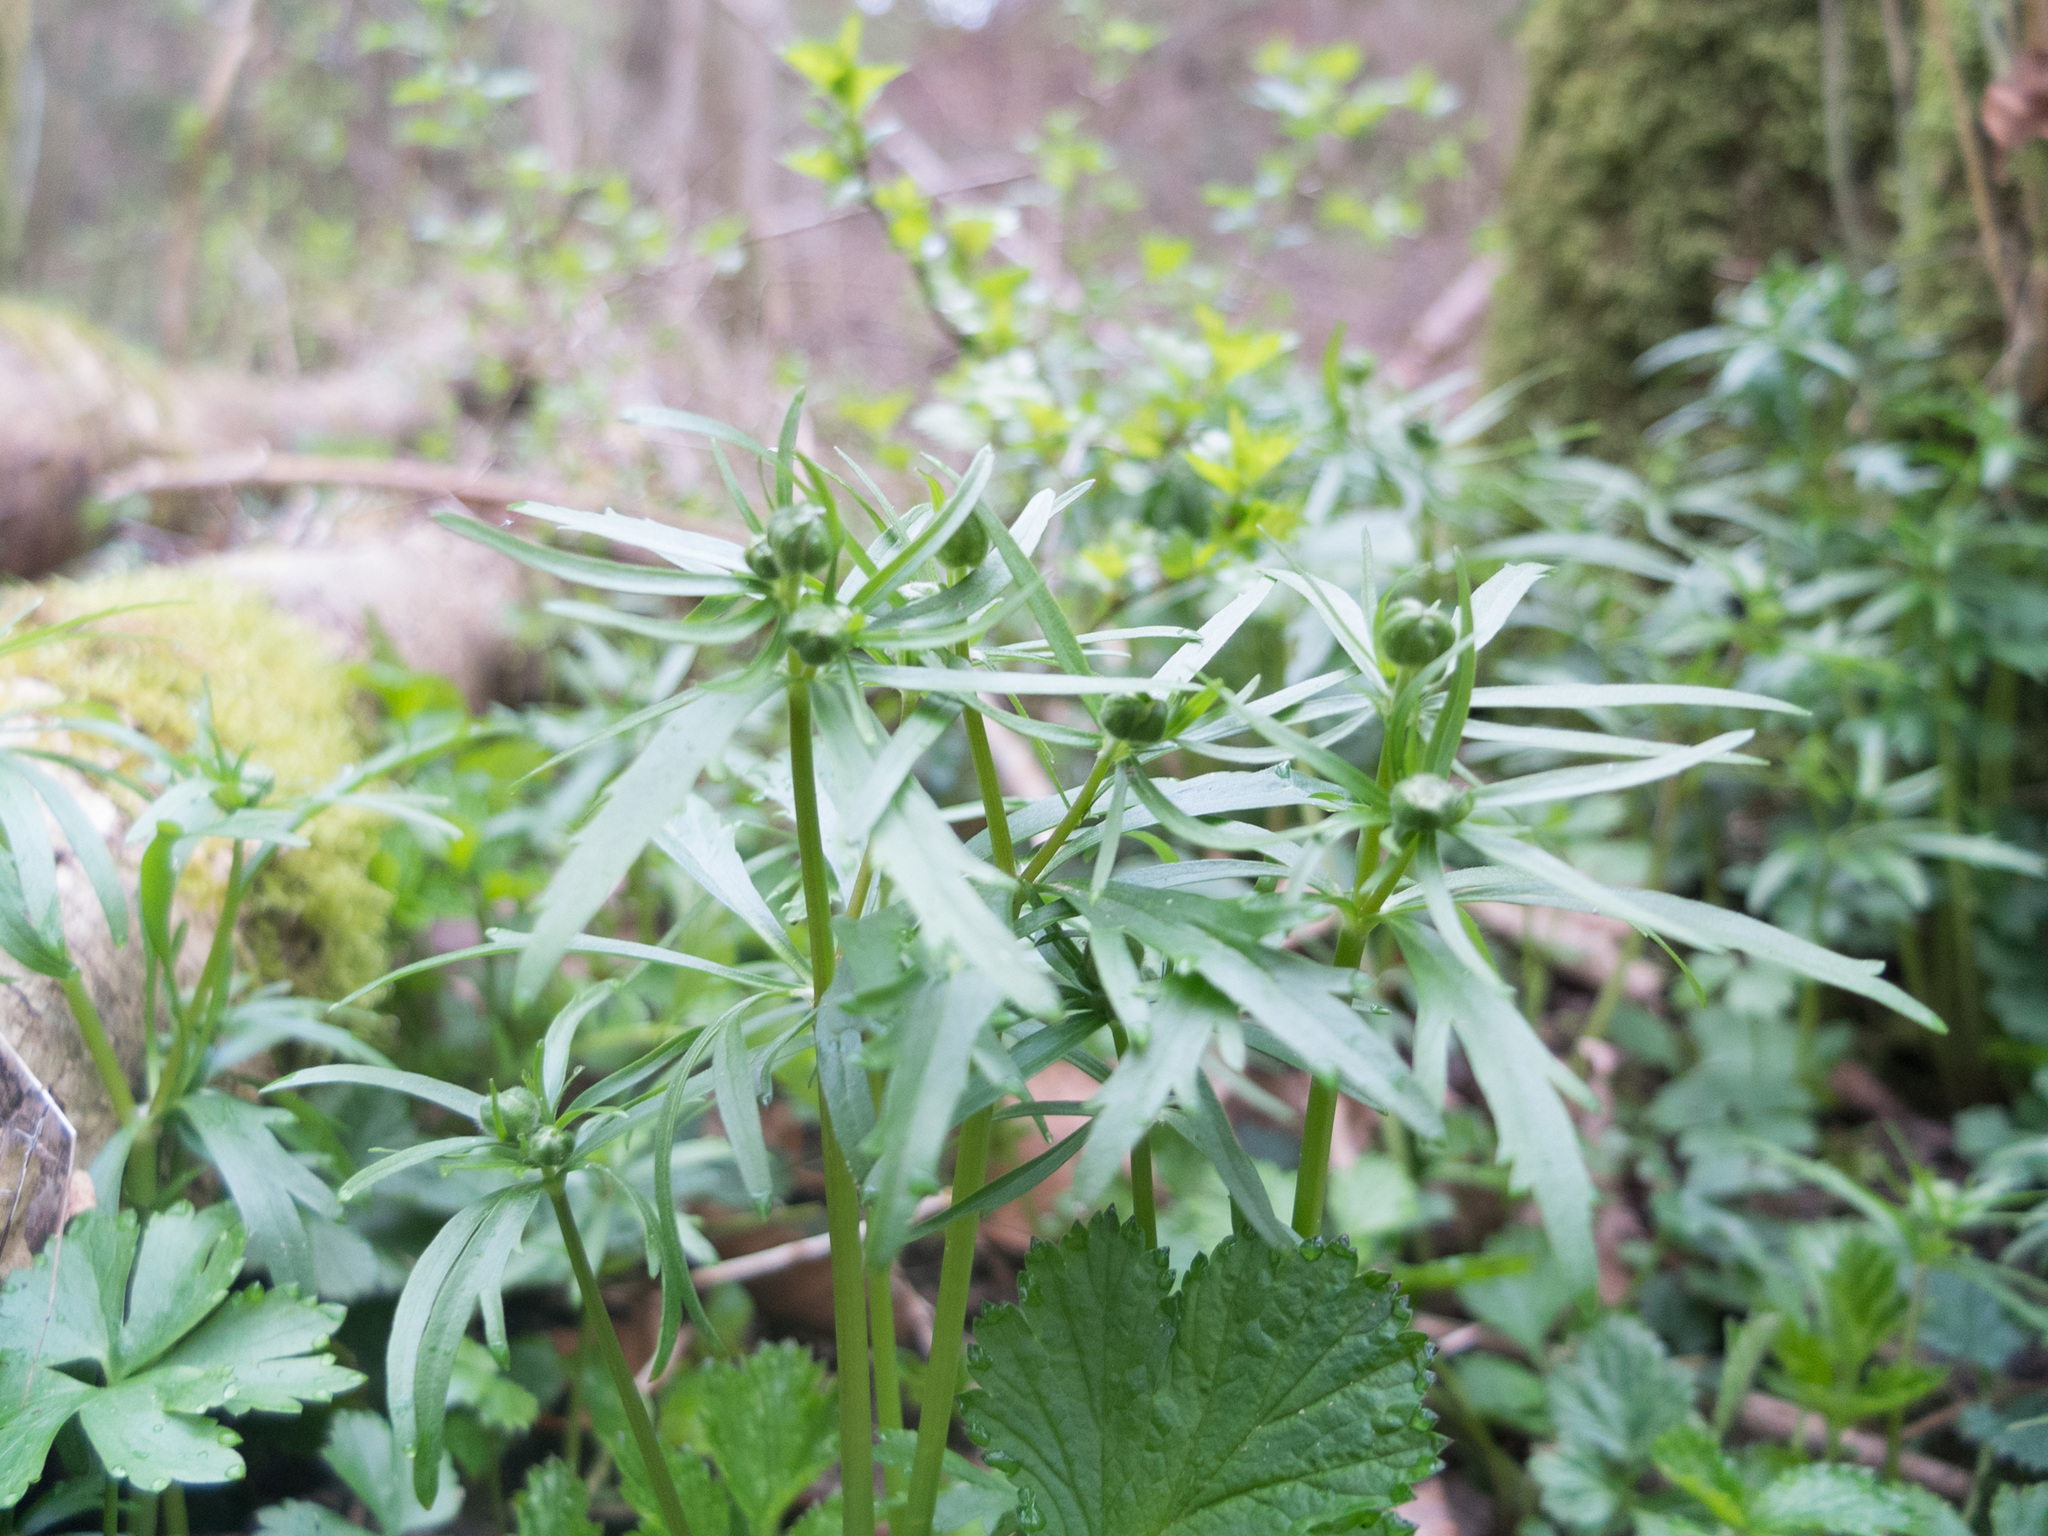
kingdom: Plantae
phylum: Tracheophyta
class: Magnoliopsida
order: Ranunculales
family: Ranunculaceae
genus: Ranunculus
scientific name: Ranunculus auricomus
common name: Goldilocks buttercup
